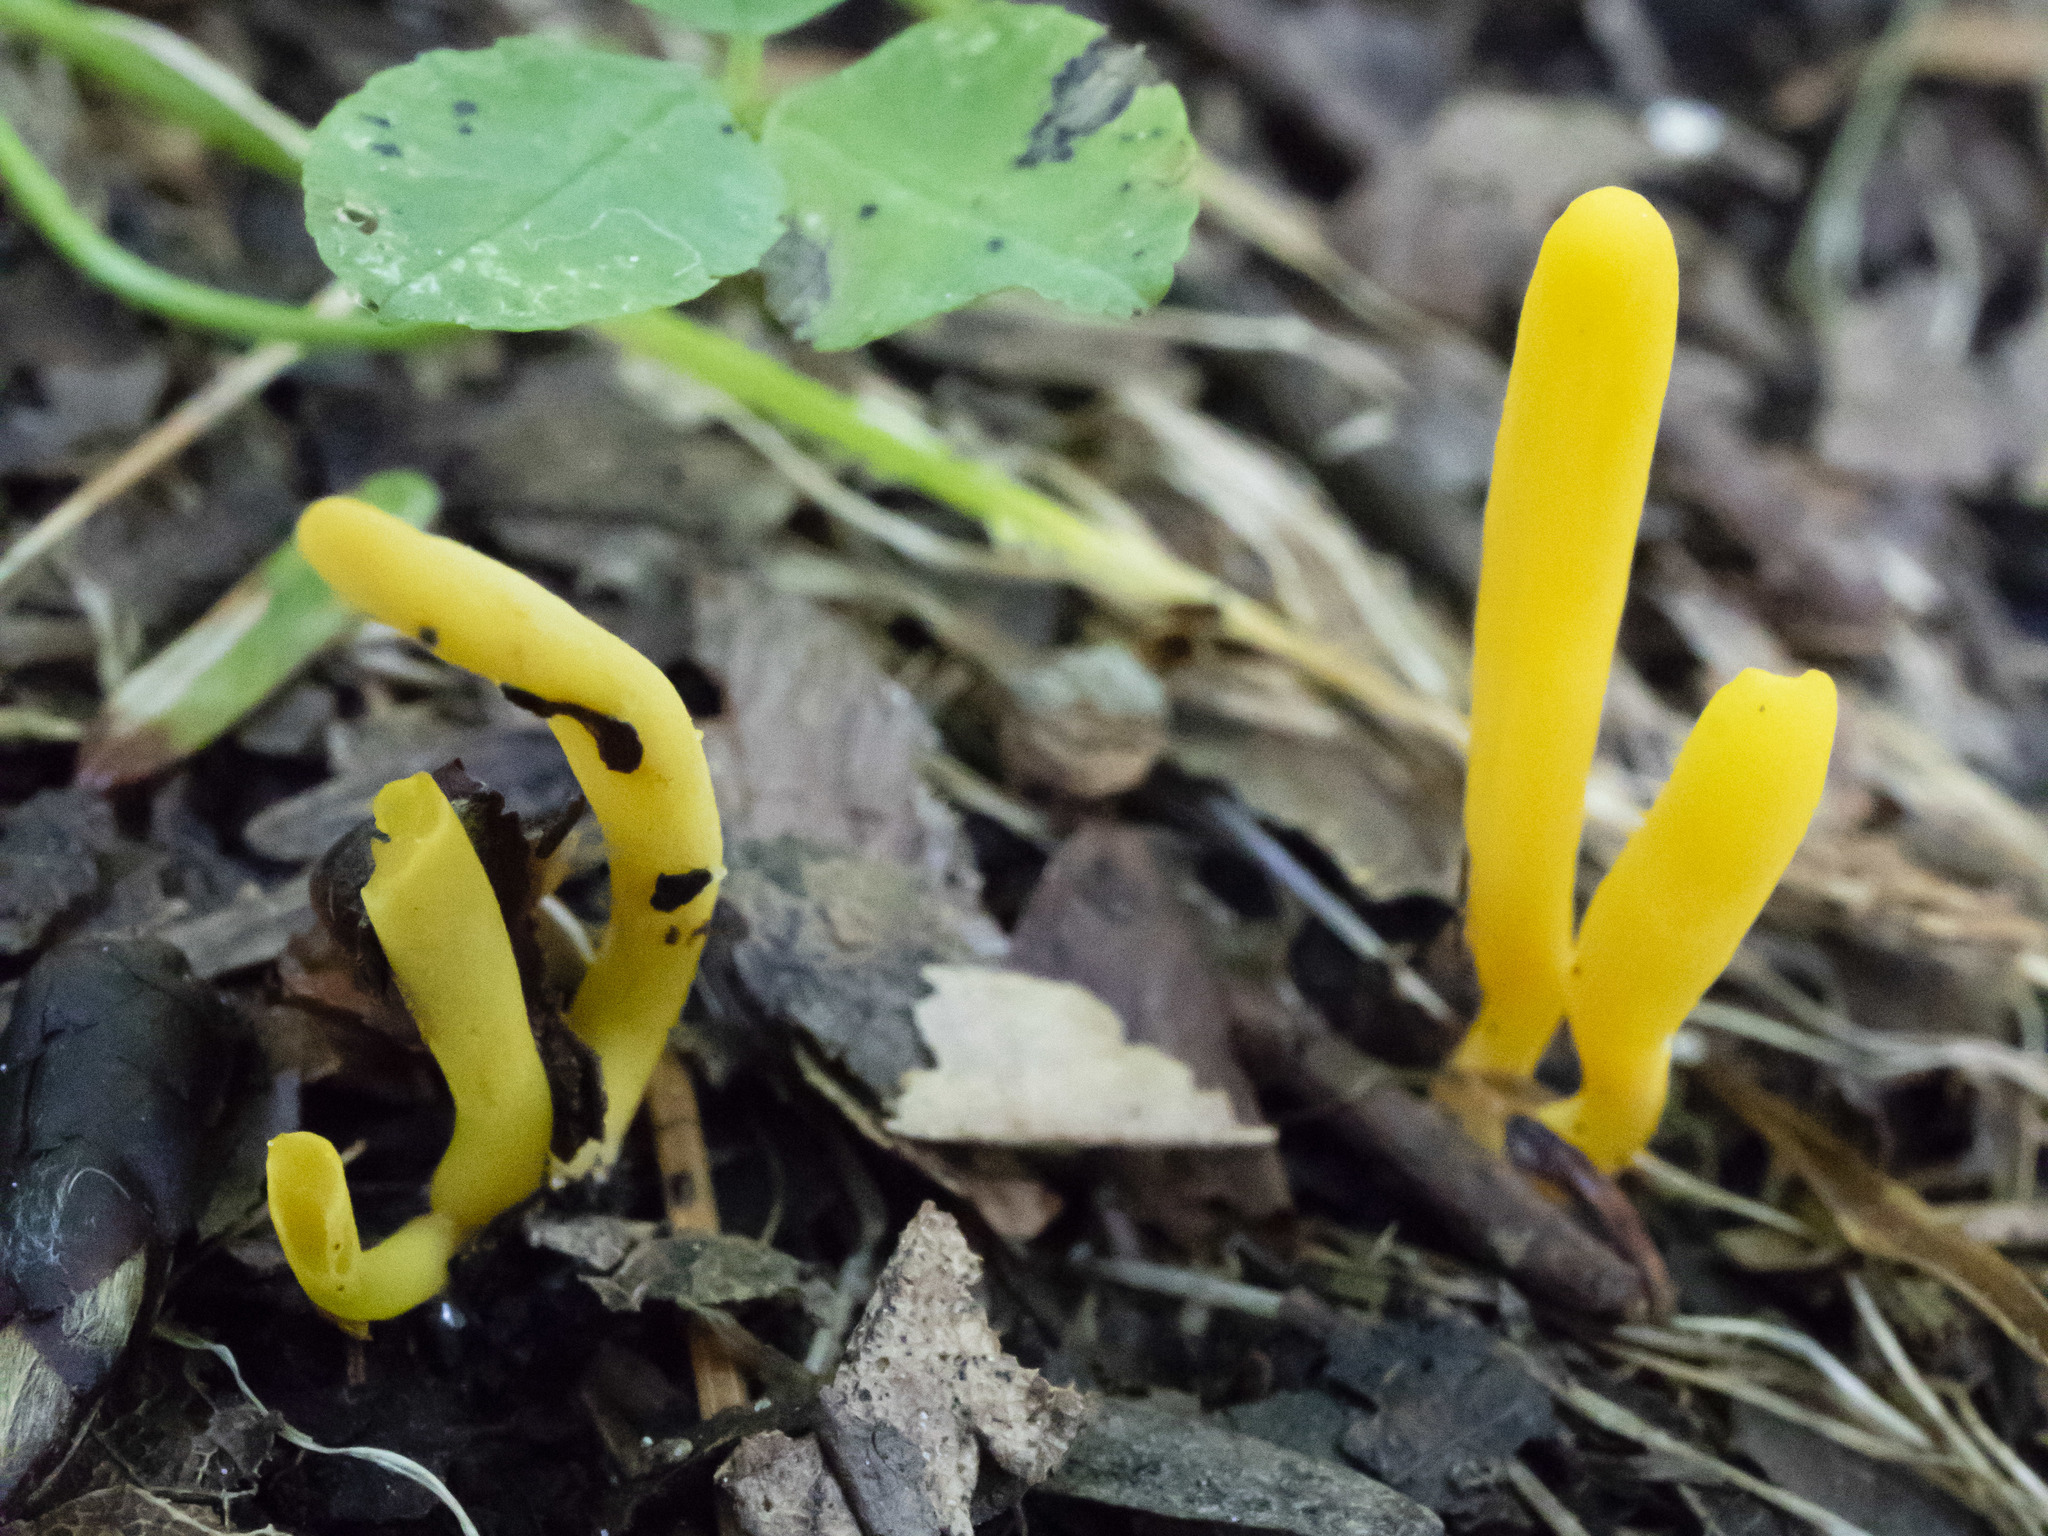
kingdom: Fungi
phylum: Basidiomycota
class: Agaricomycetes
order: Agaricales
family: Clavariaceae
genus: Clavulinopsis
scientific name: Clavulinopsis laeticolor
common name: Handsome club
